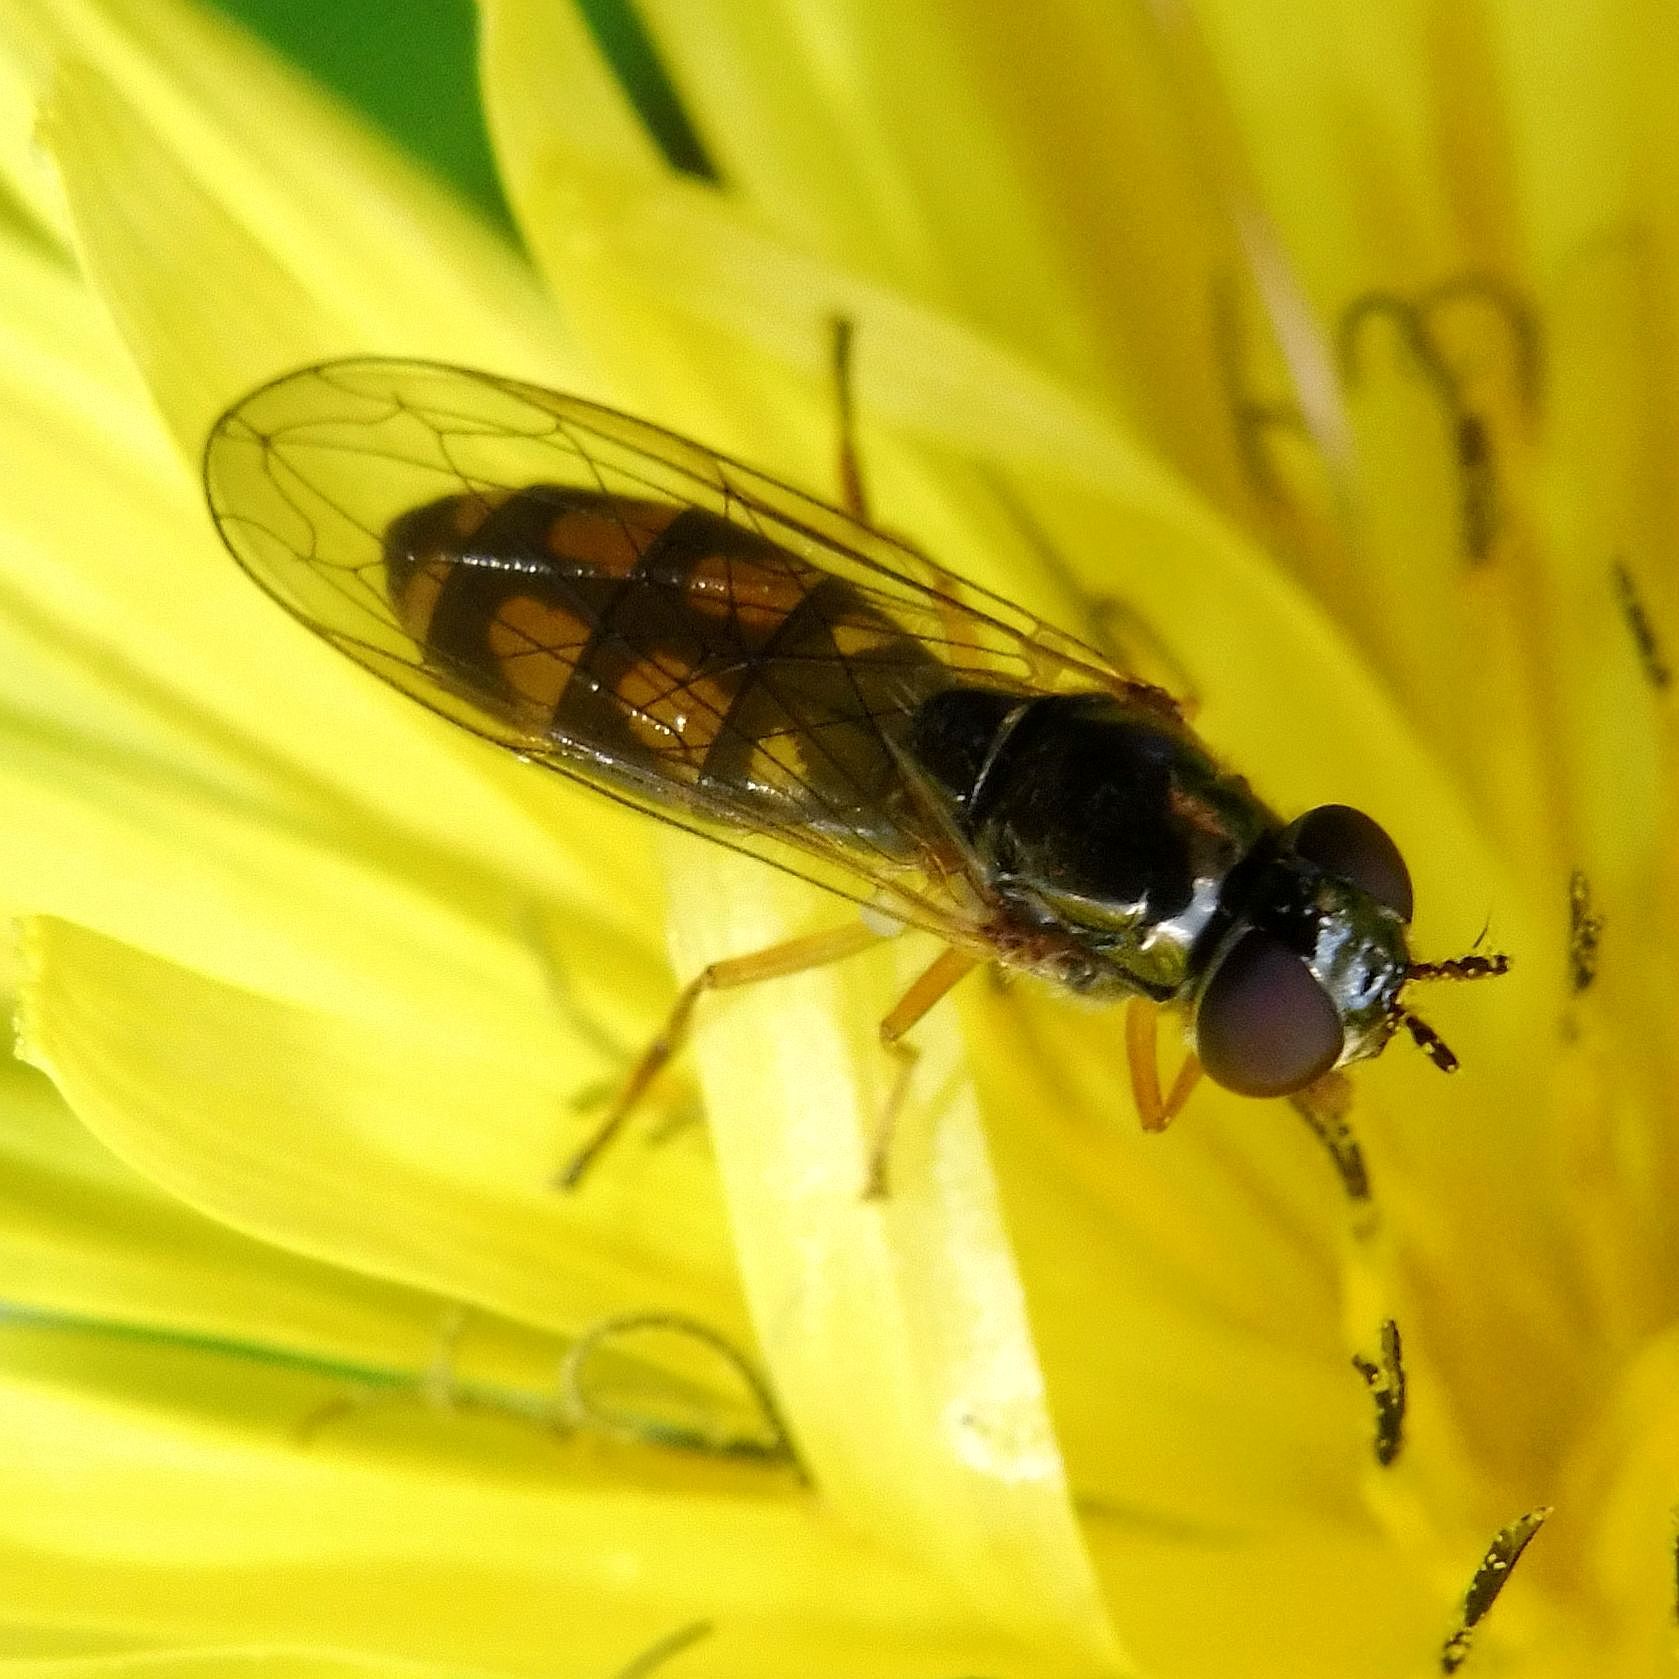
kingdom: Animalia
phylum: Arthropoda
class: Insecta
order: Diptera
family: Syrphidae
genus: Melanostoma
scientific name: Melanostoma mellina
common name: Hover fly
